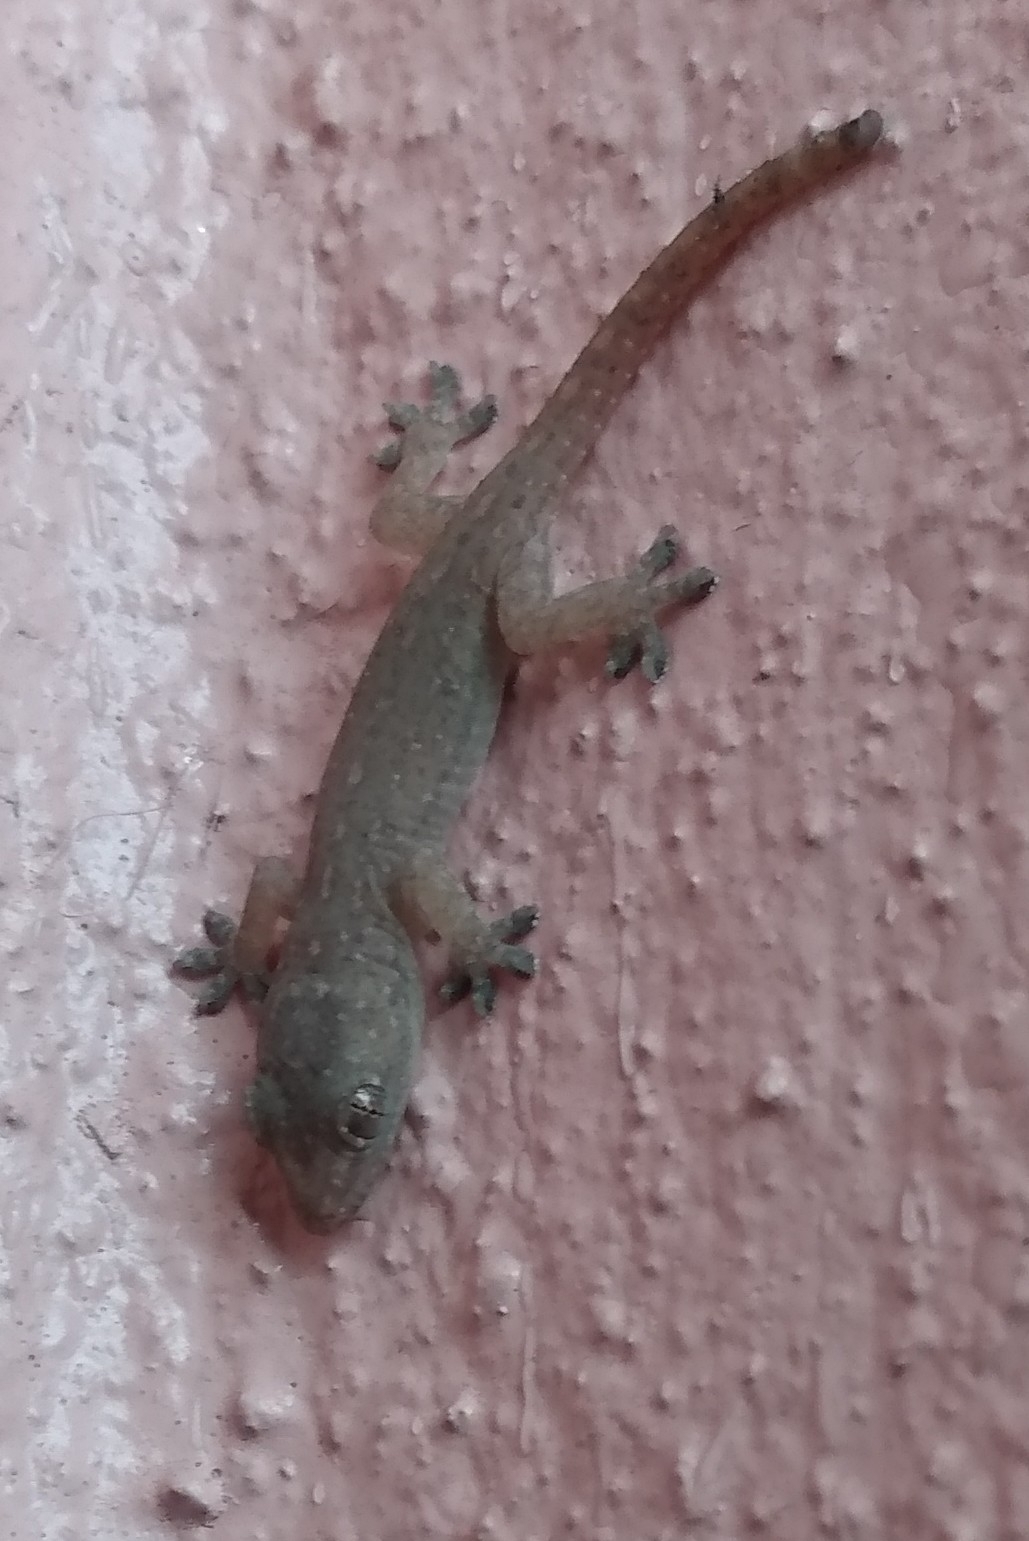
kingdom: Animalia
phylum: Chordata
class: Squamata
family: Gekkonidae
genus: Hemidactylus
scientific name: Hemidactylus frenatus
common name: Common house gecko
